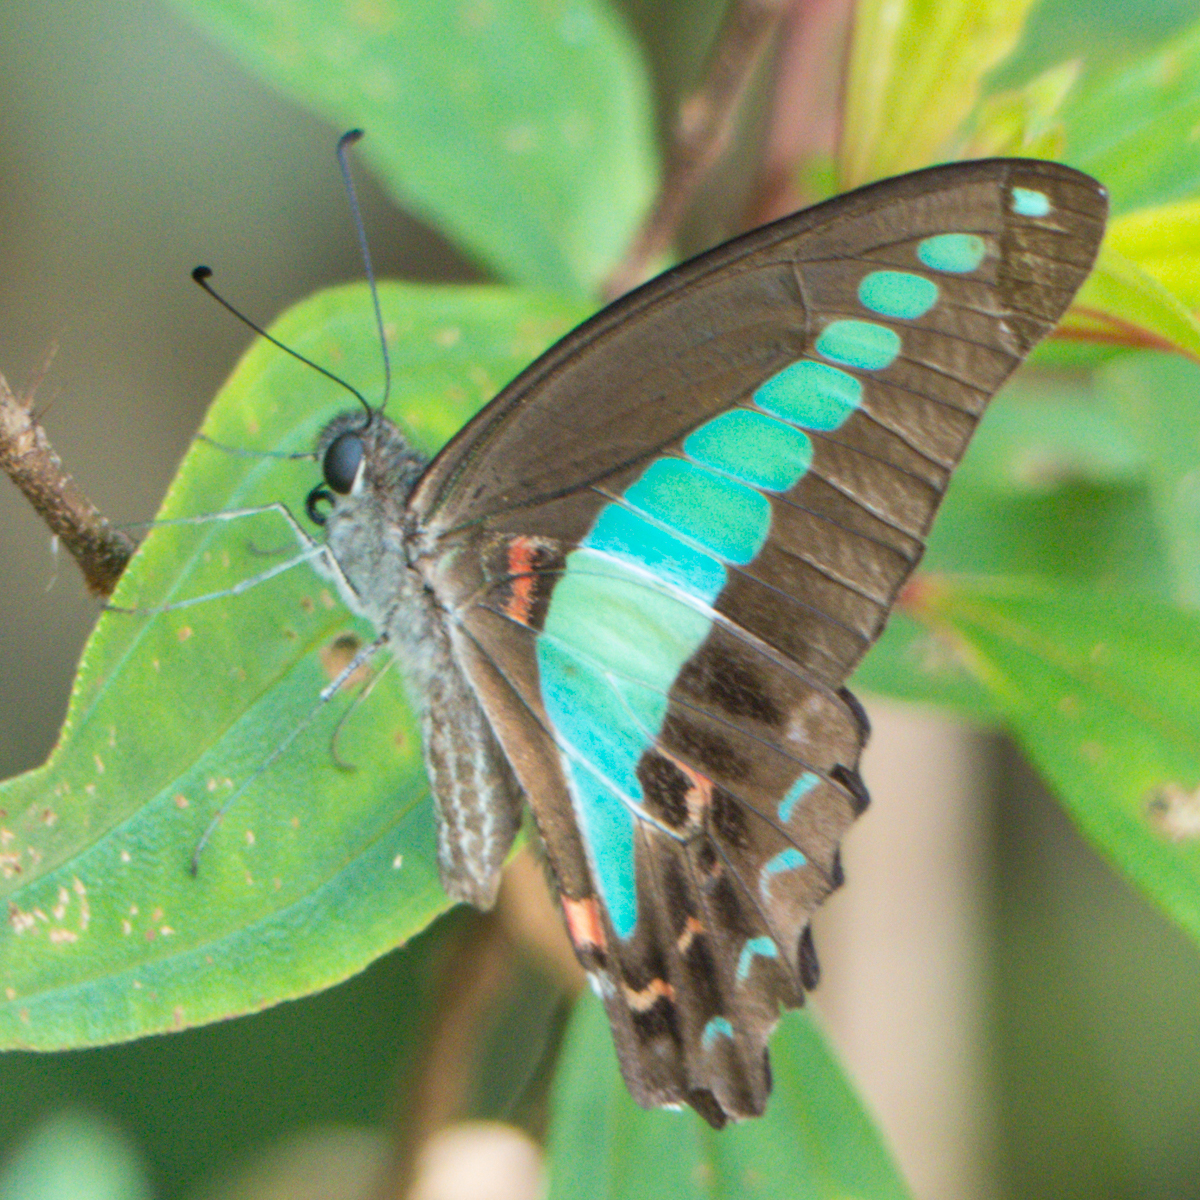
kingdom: Fungi
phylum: Ascomycota
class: Sordariomycetes
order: Microascales
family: Microascaceae
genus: Graphium
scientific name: Graphium sarpedon
